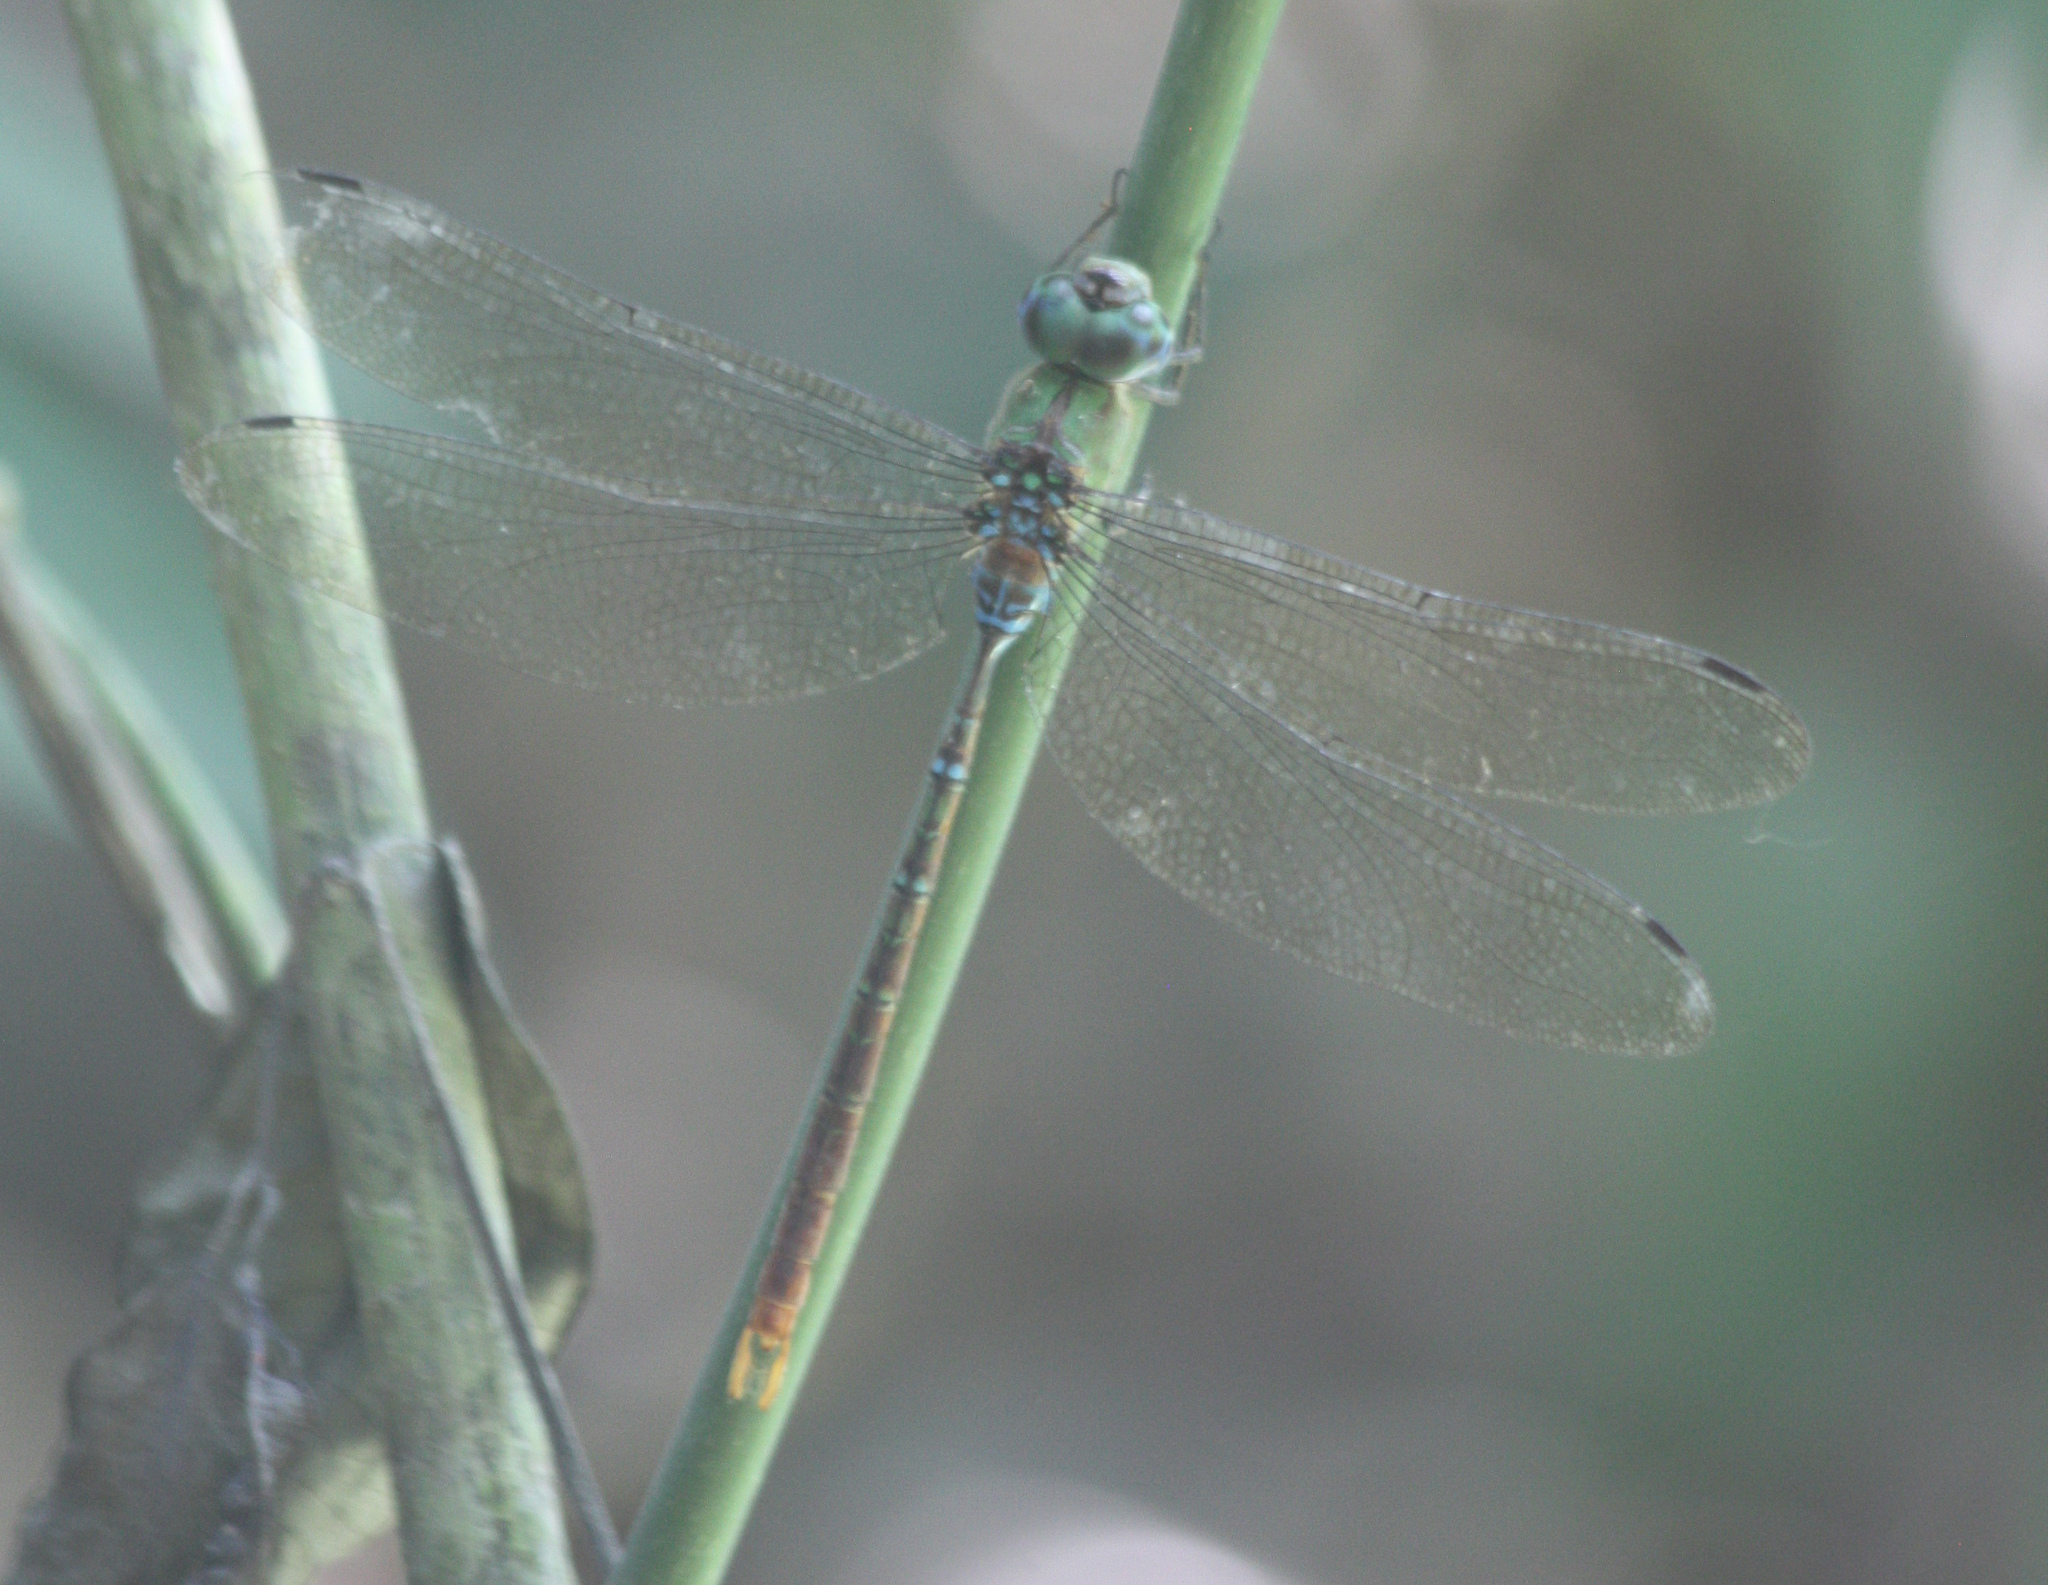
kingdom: Animalia
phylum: Arthropoda
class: Insecta
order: Odonata
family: Aeshnidae
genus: Gynacantha
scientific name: Gynacantha tibiata
